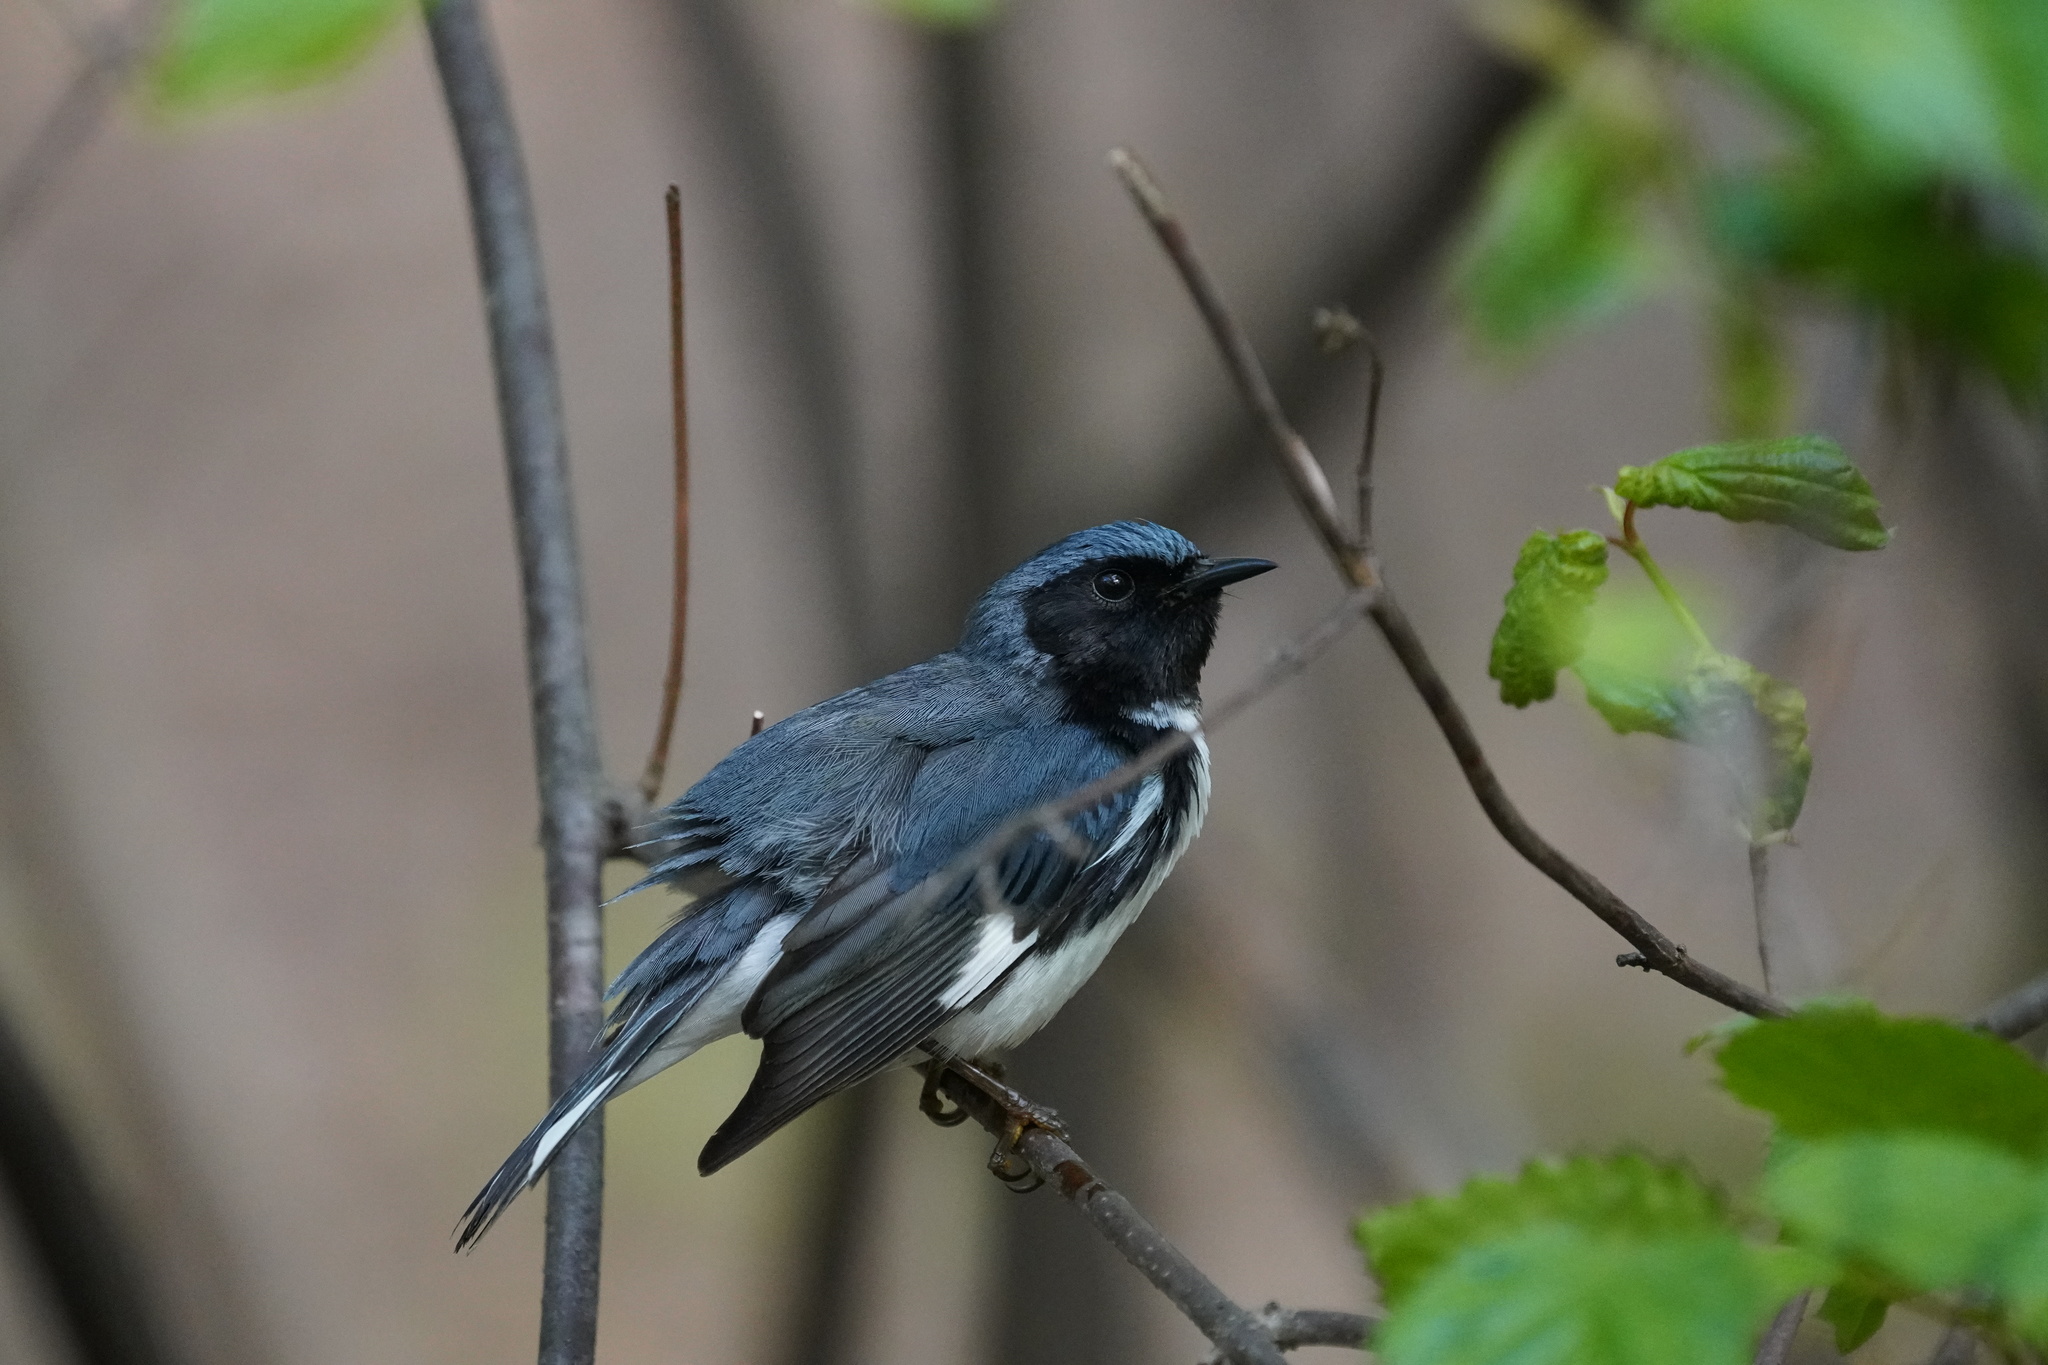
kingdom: Animalia
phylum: Chordata
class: Aves
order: Passeriformes
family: Parulidae
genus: Setophaga
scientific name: Setophaga caerulescens
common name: Black-throated blue warbler
